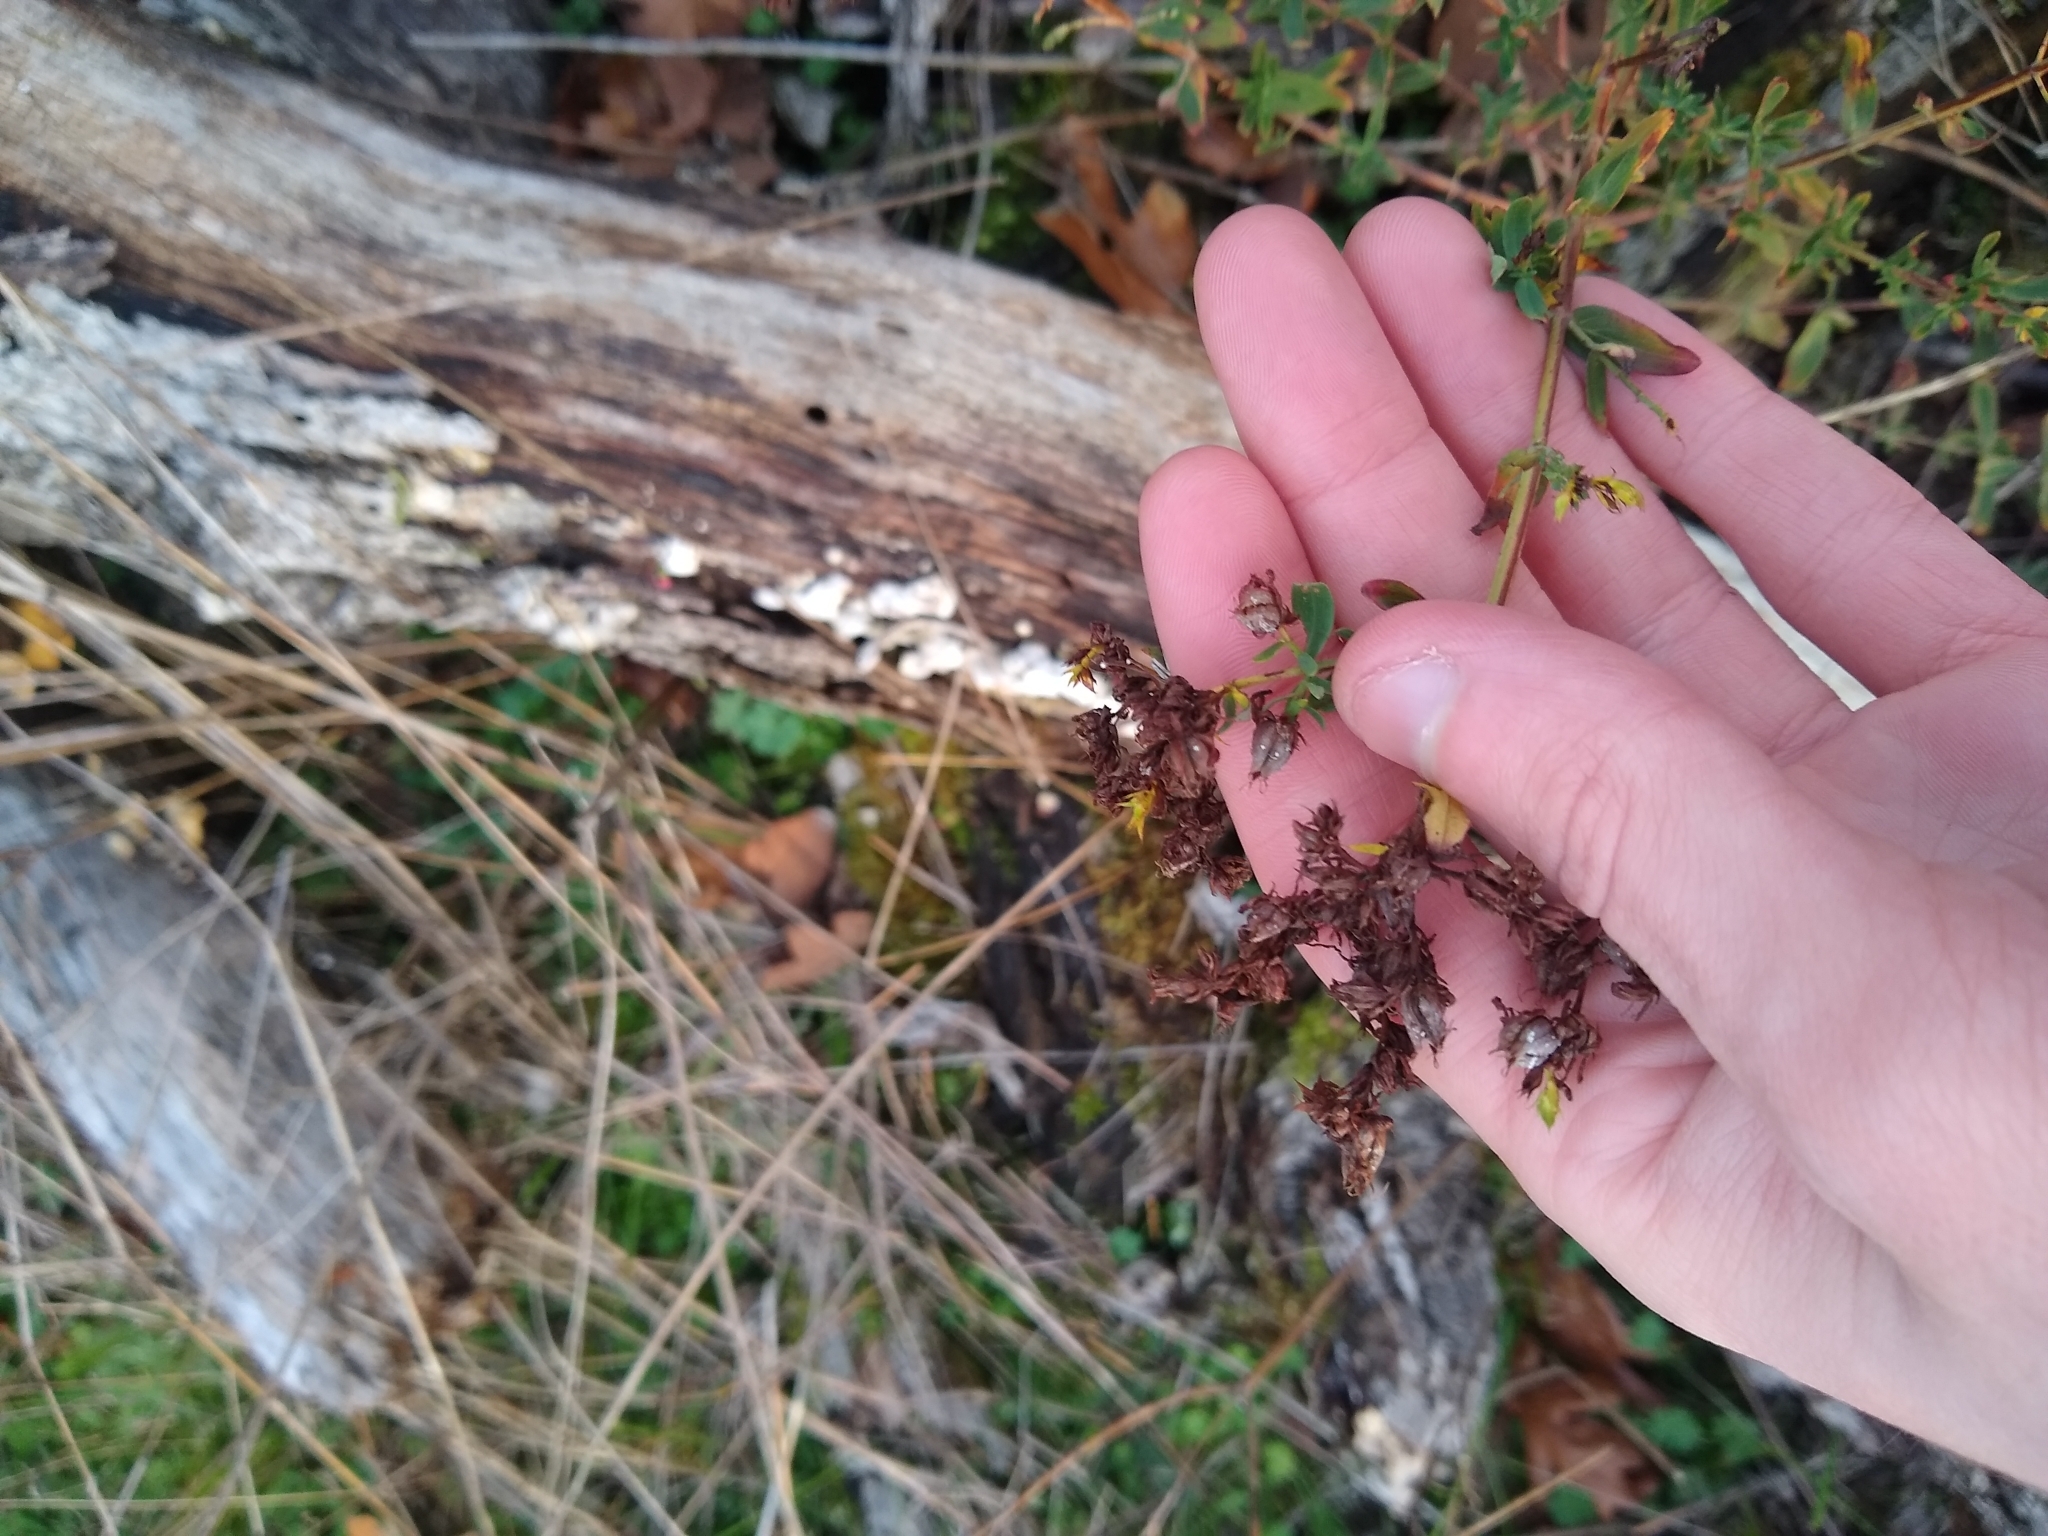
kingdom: Plantae
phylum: Tracheophyta
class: Magnoliopsida
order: Malpighiales
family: Hypericaceae
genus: Hypericum
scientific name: Hypericum perforatum
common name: Common st. johnswort
